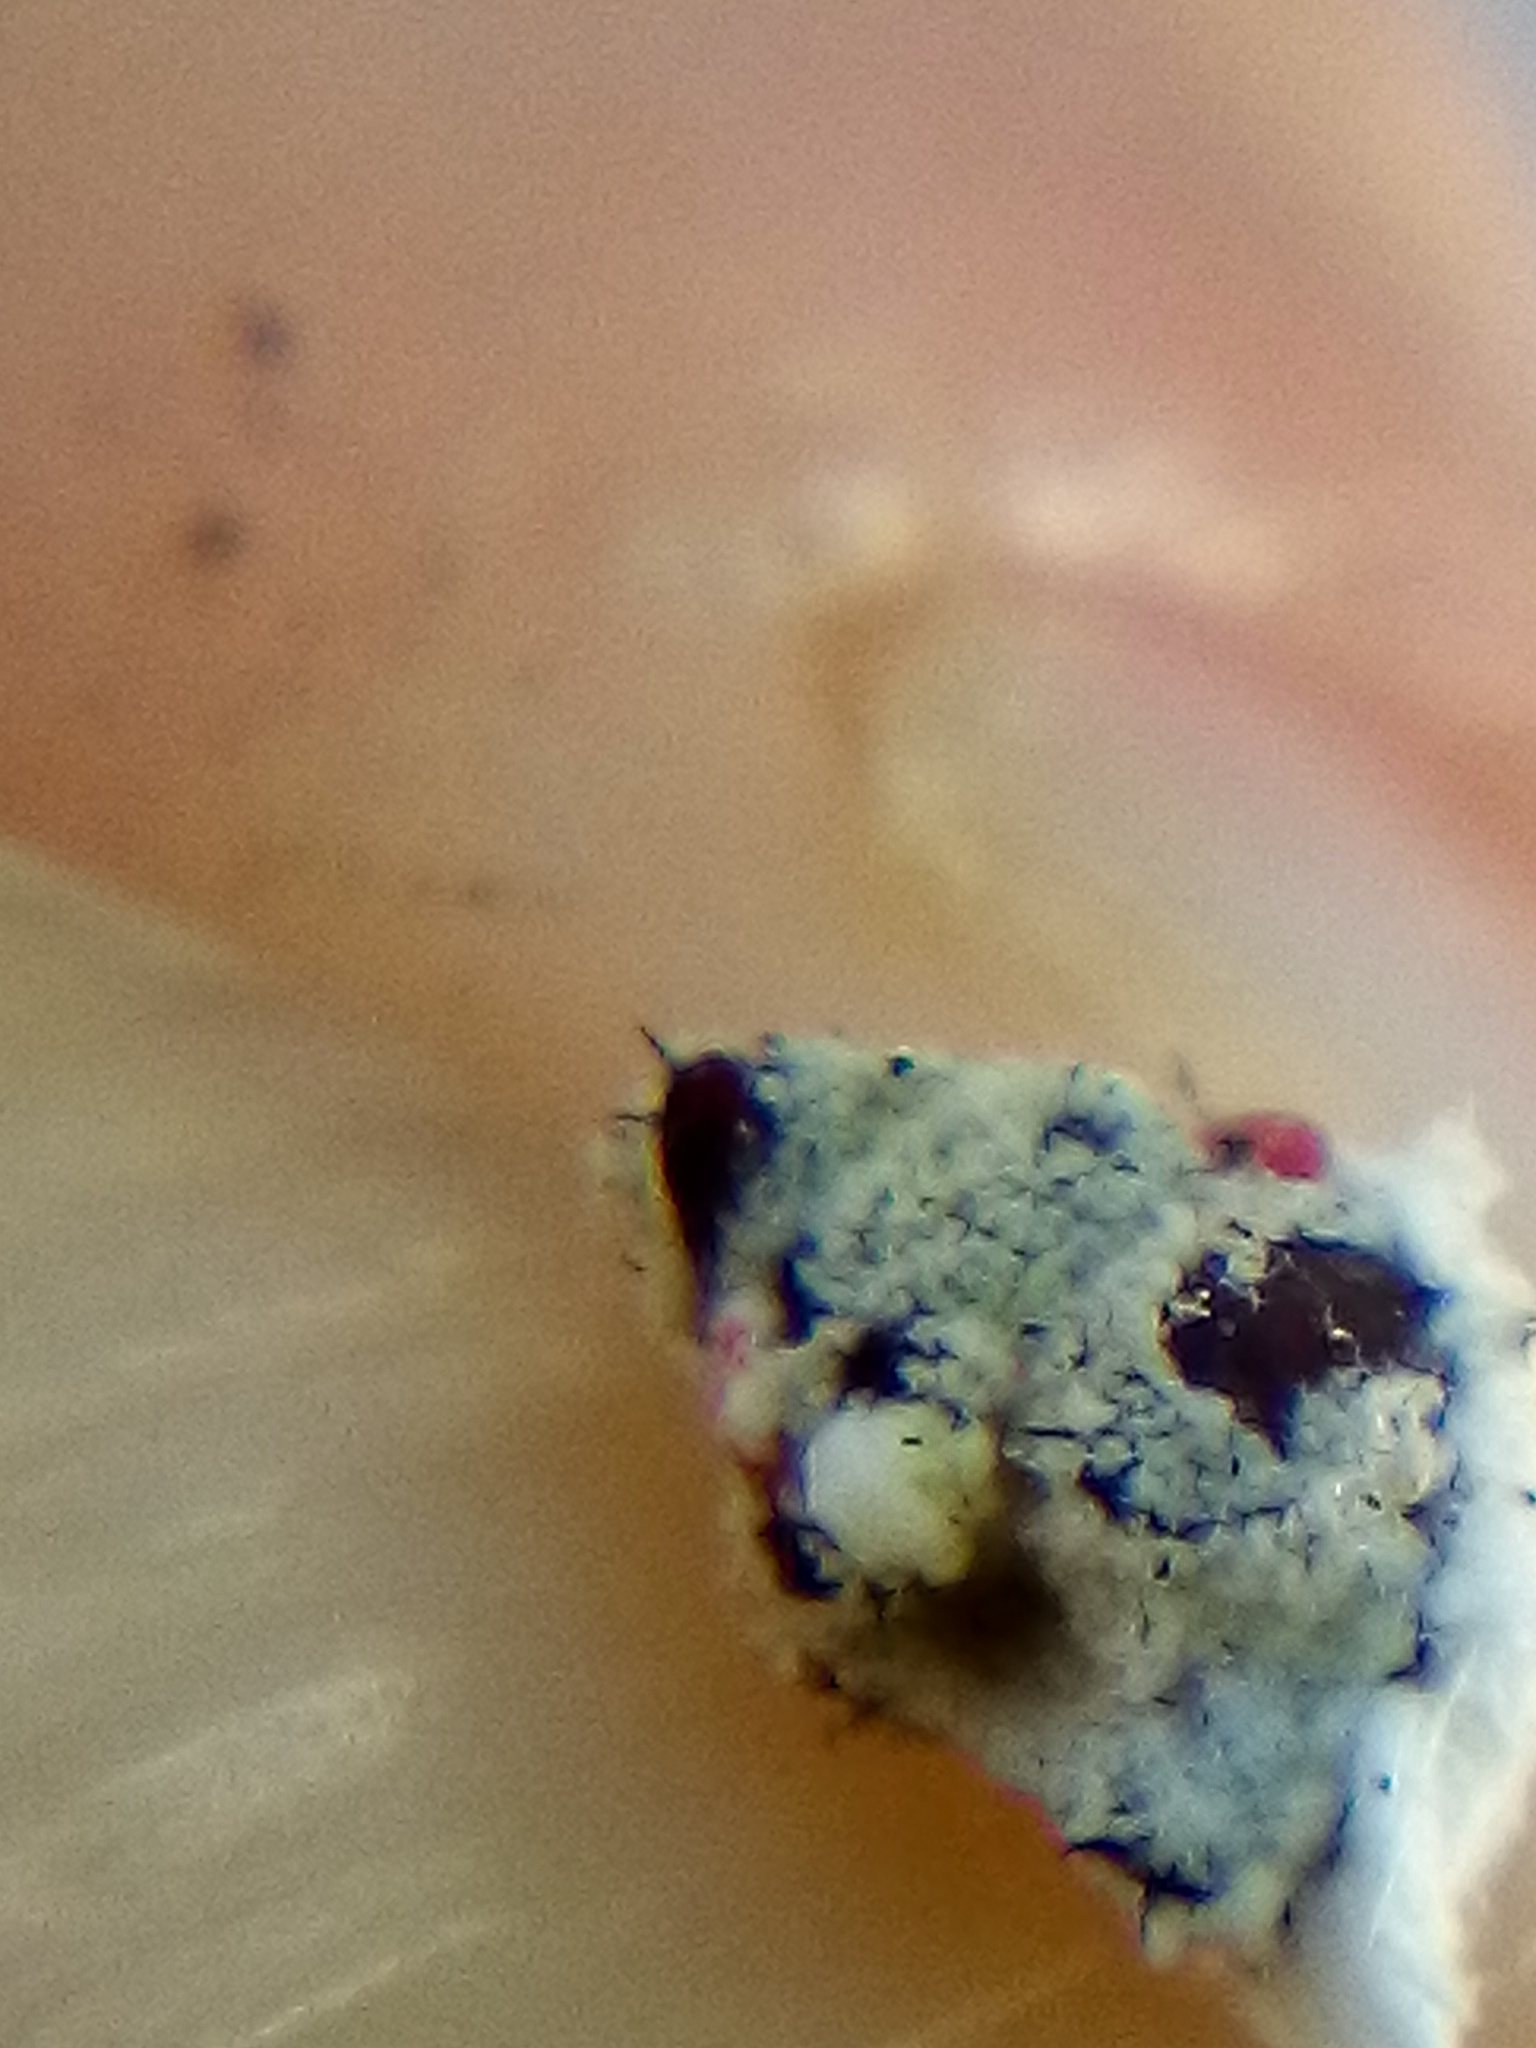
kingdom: Animalia
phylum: Arthropoda
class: Insecta
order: Diptera
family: Cryptochetidae
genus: Cryptochetum
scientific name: Cryptochetum iceryae
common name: Cottony cushion scale fly
